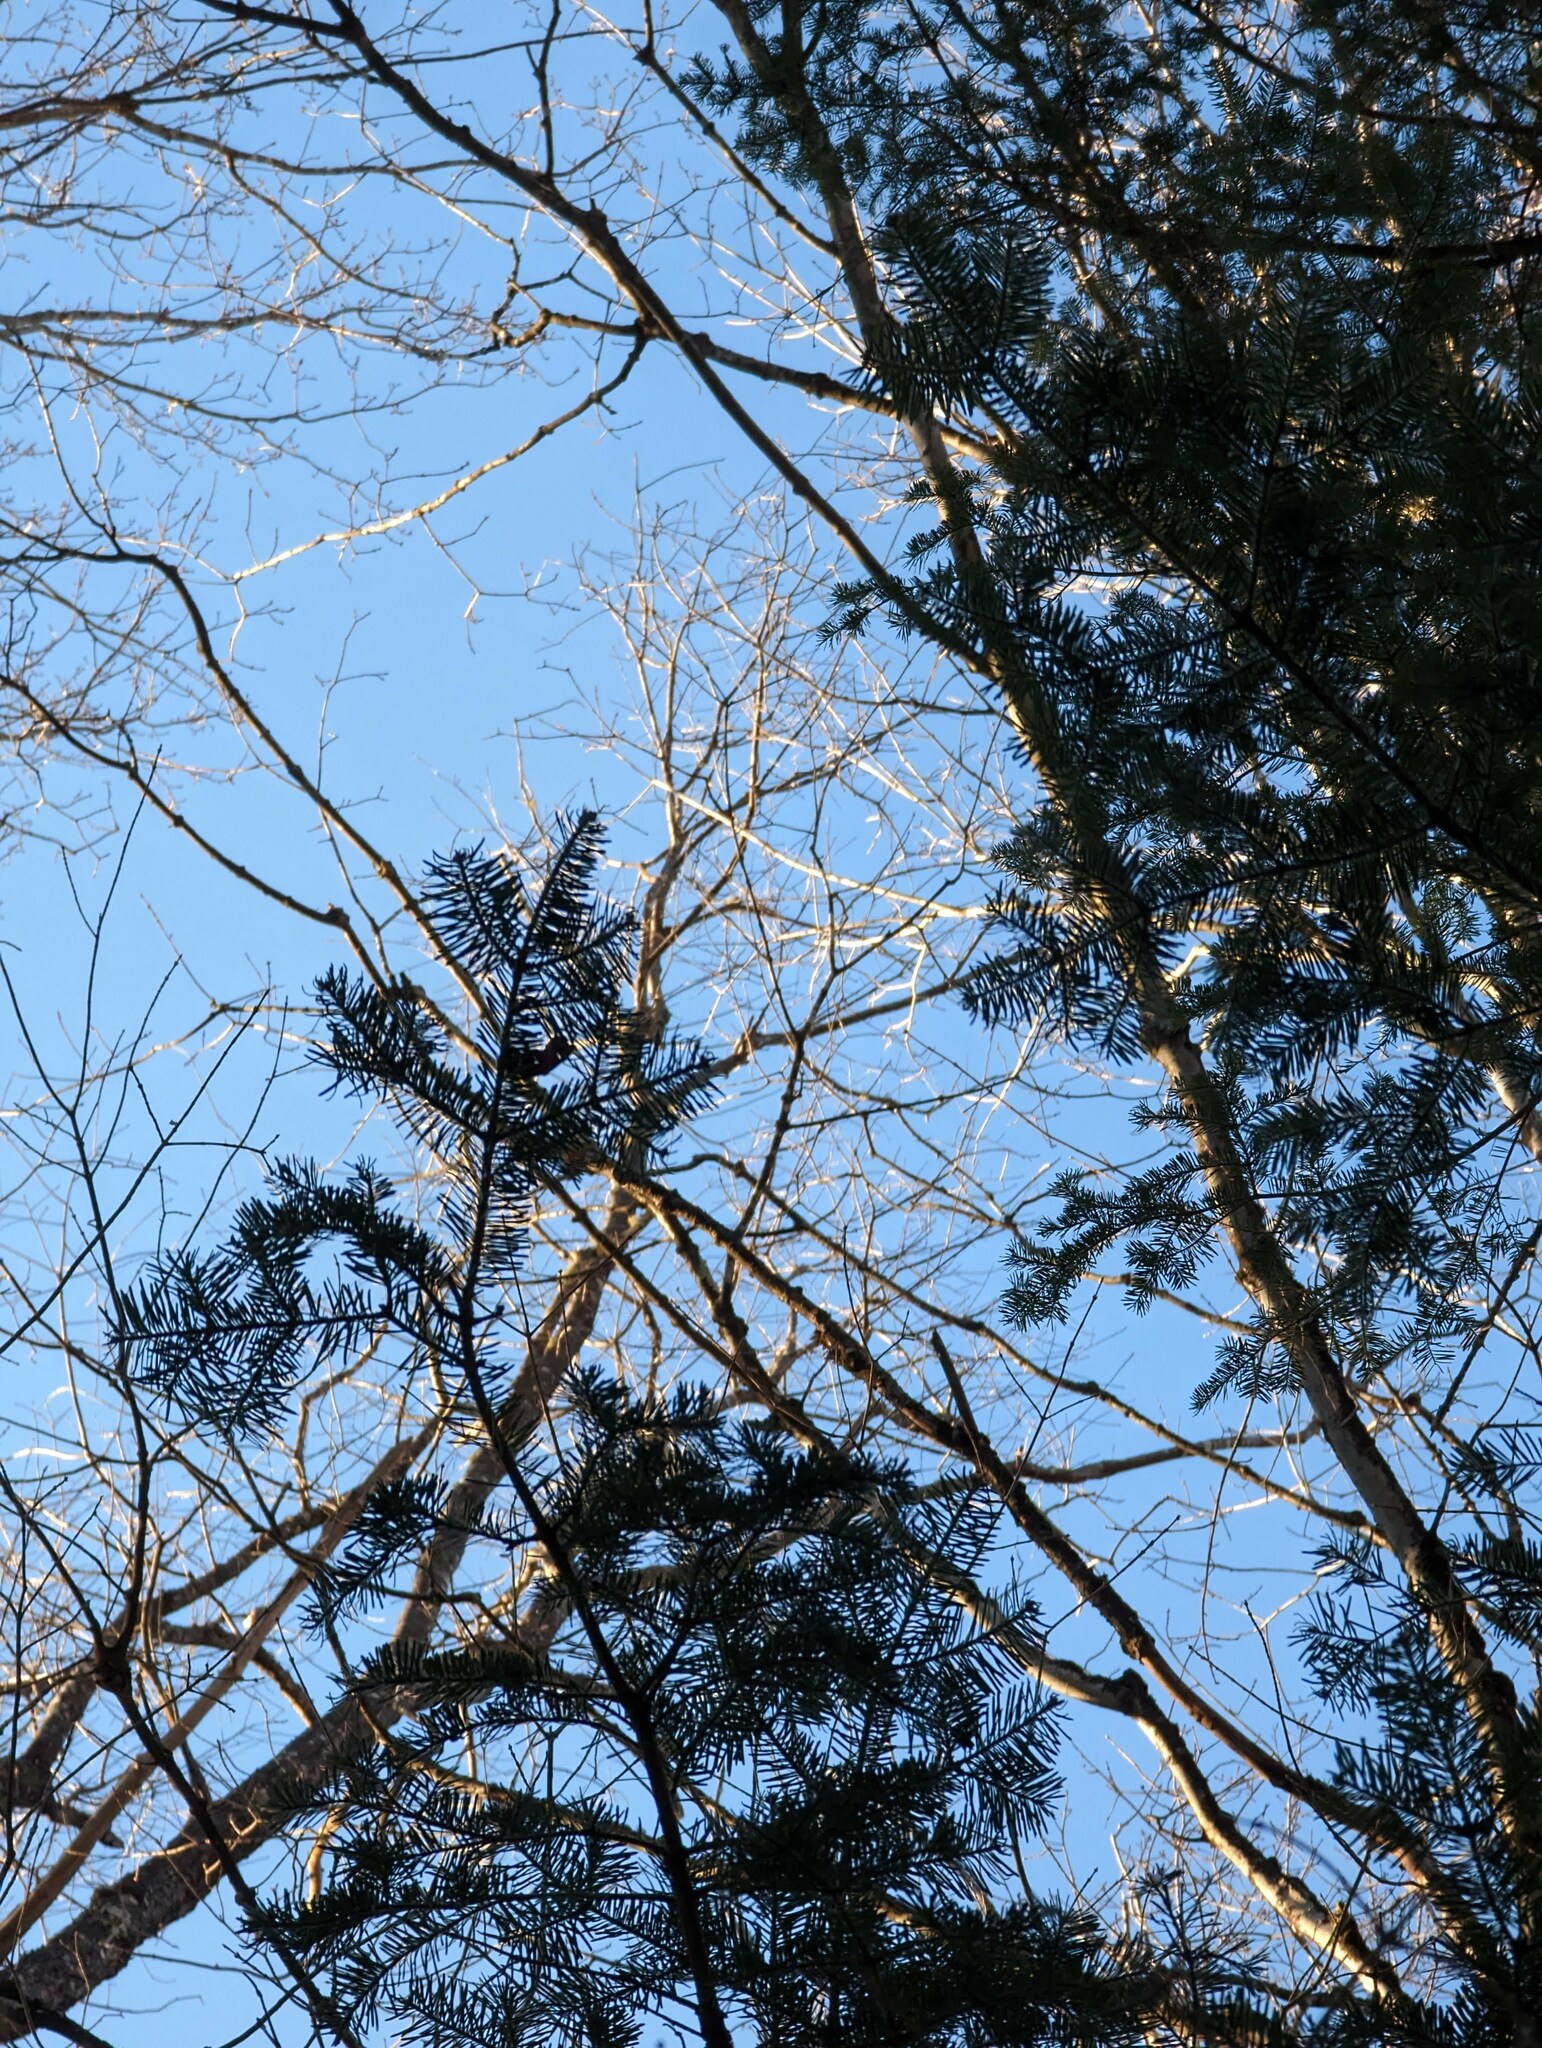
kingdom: Plantae
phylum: Tracheophyta
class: Pinopsida
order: Pinales
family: Pinaceae
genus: Abies
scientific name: Abies balsamea
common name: Balsam fir
